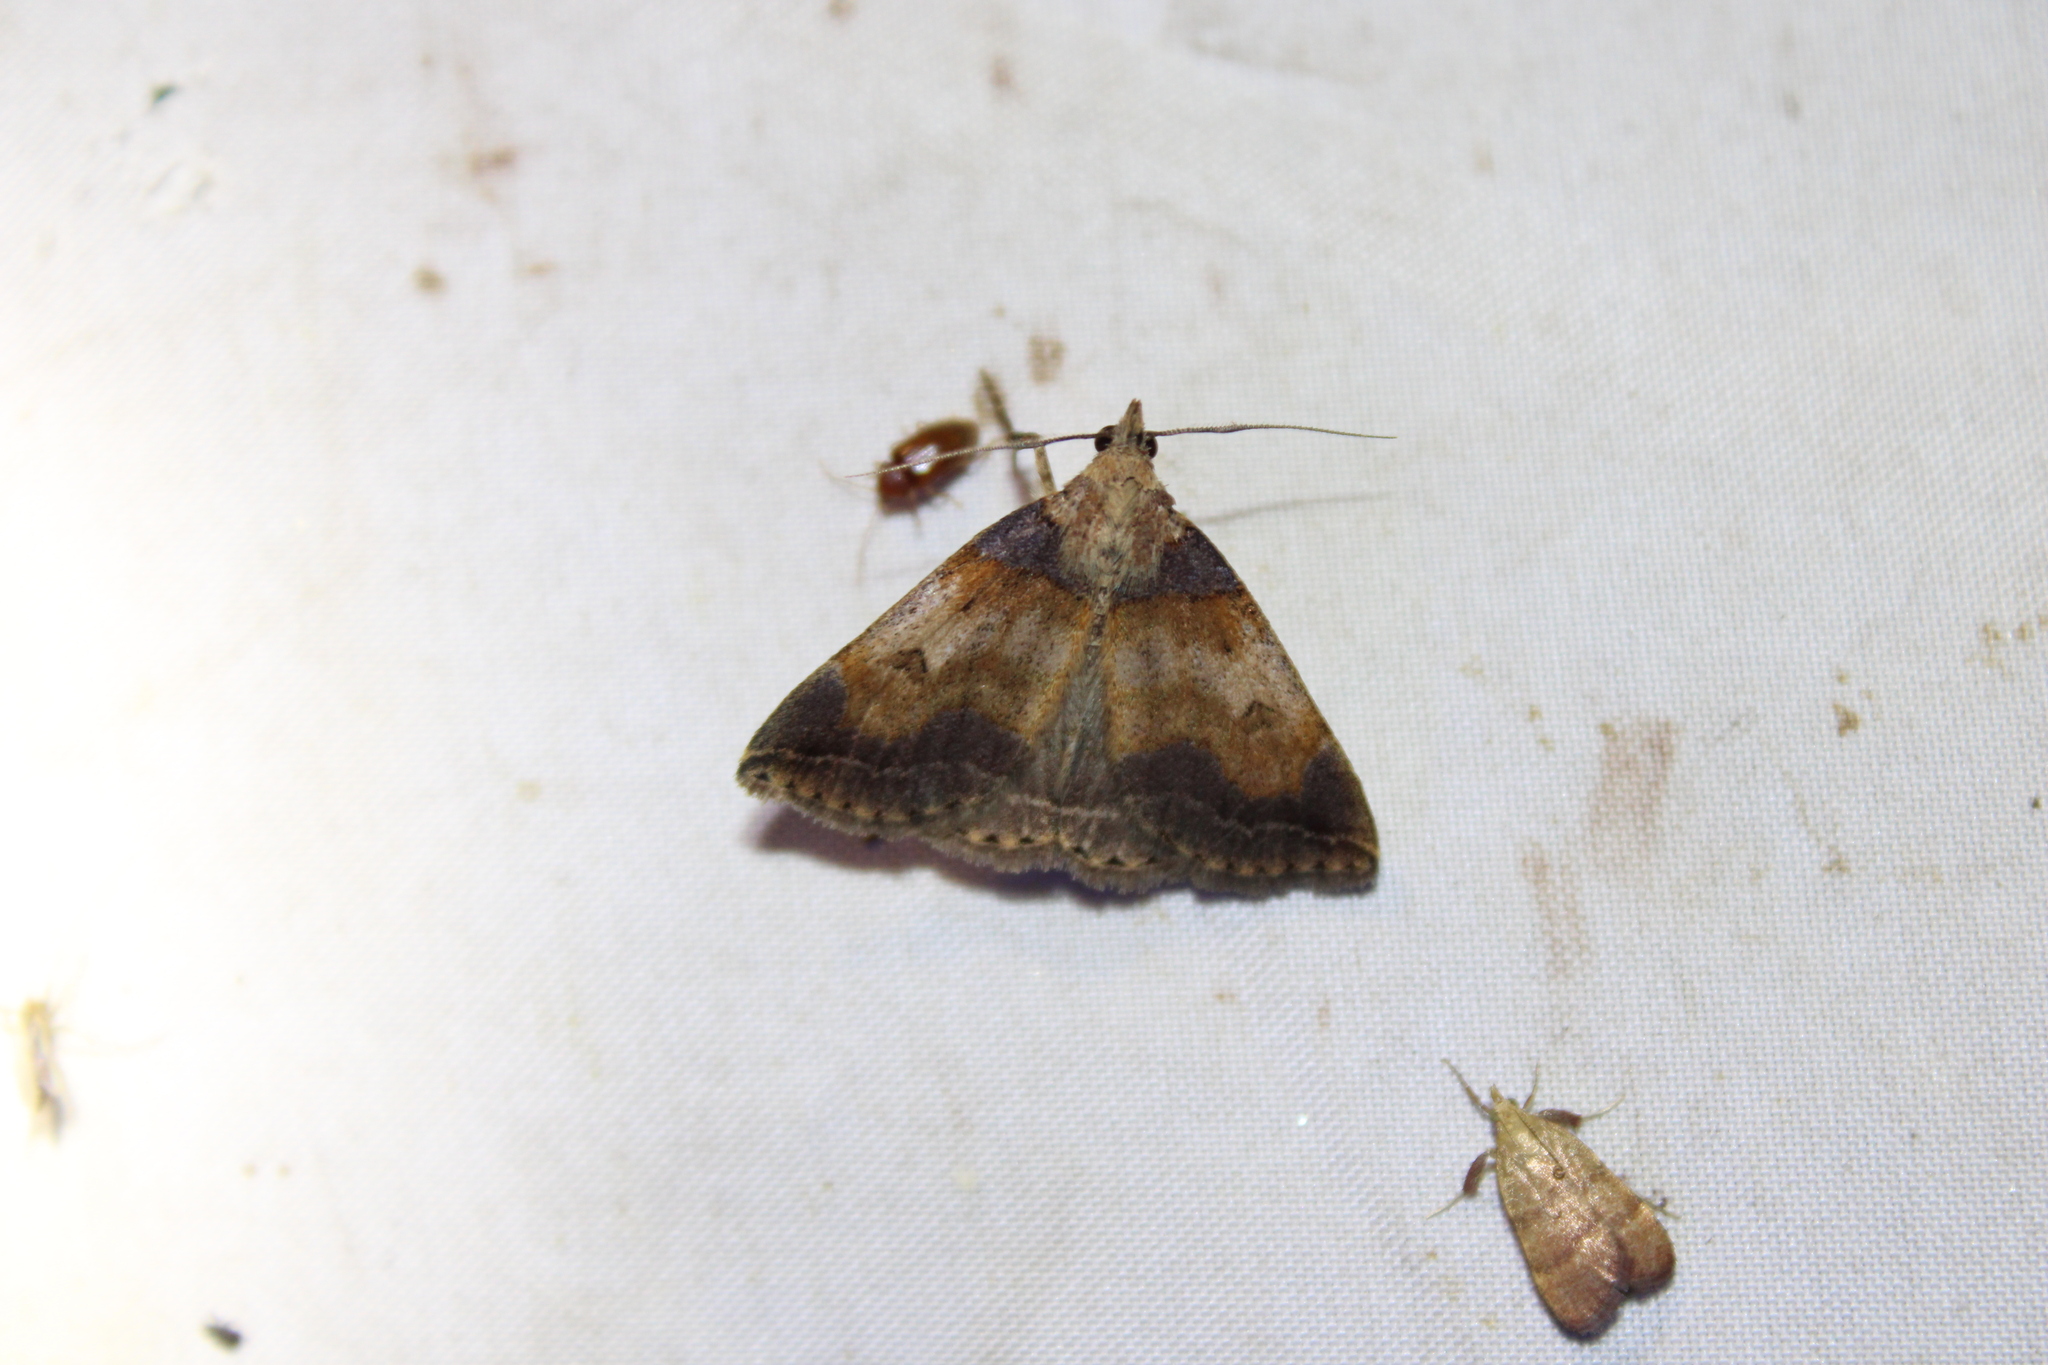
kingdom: Animalia
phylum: Arthropoda
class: Insecta
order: Lepidoptera
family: Erebidae
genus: Zanclognatha
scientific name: Zanclognatha laevigata
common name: Variable fan-foot
